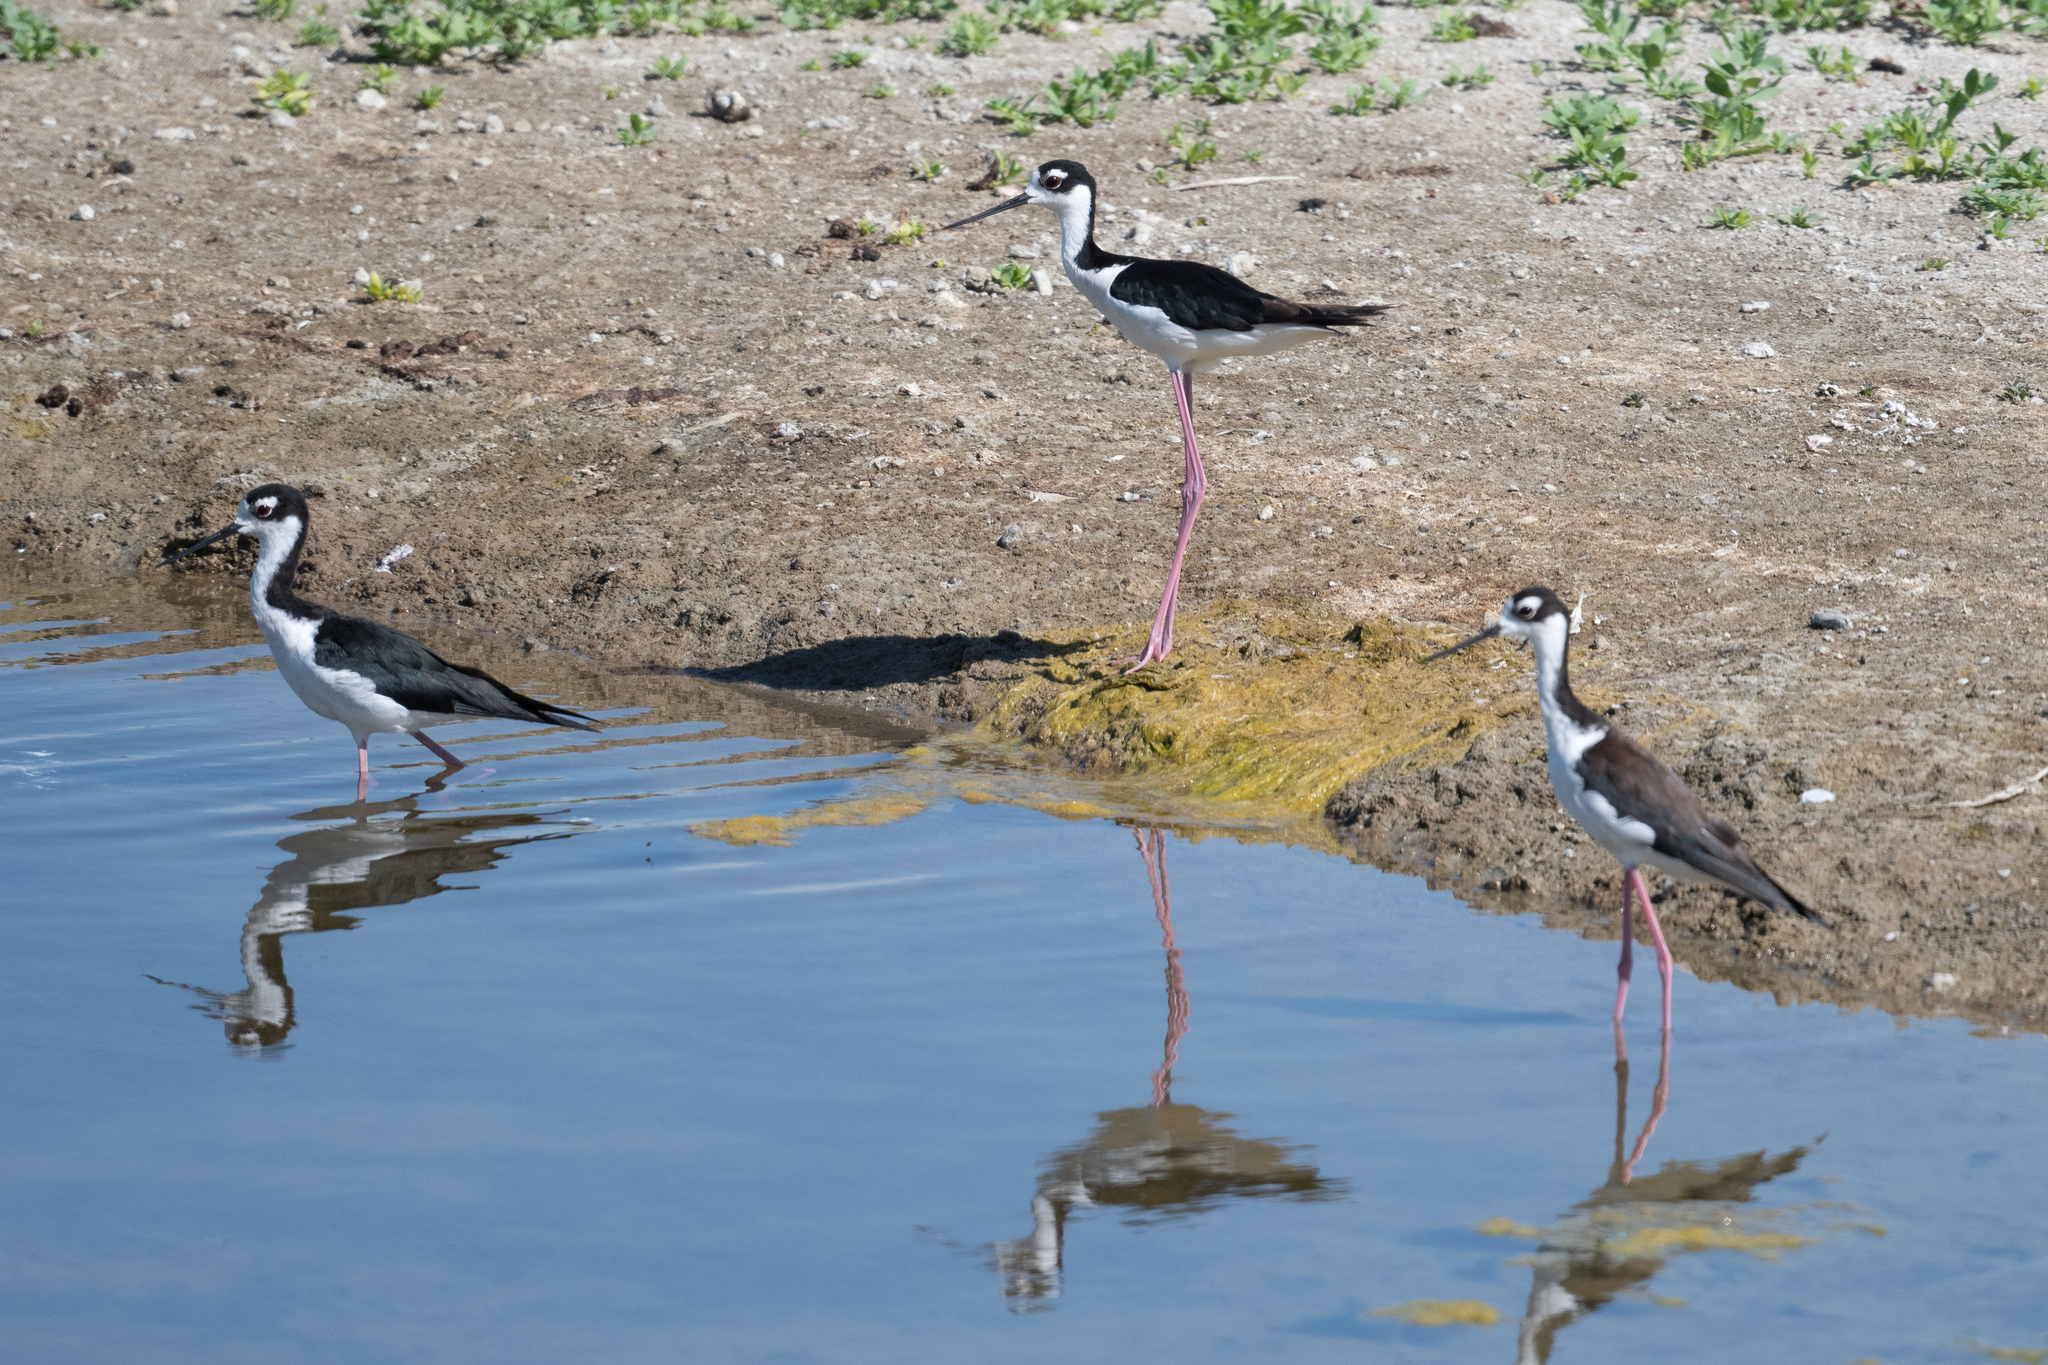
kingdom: Animalia
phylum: Chordata
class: Aves
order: Charadriiformes
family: Recurvirostridae
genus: Himantopus
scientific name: Himantopus mexicanus
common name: Black-necked stilt
